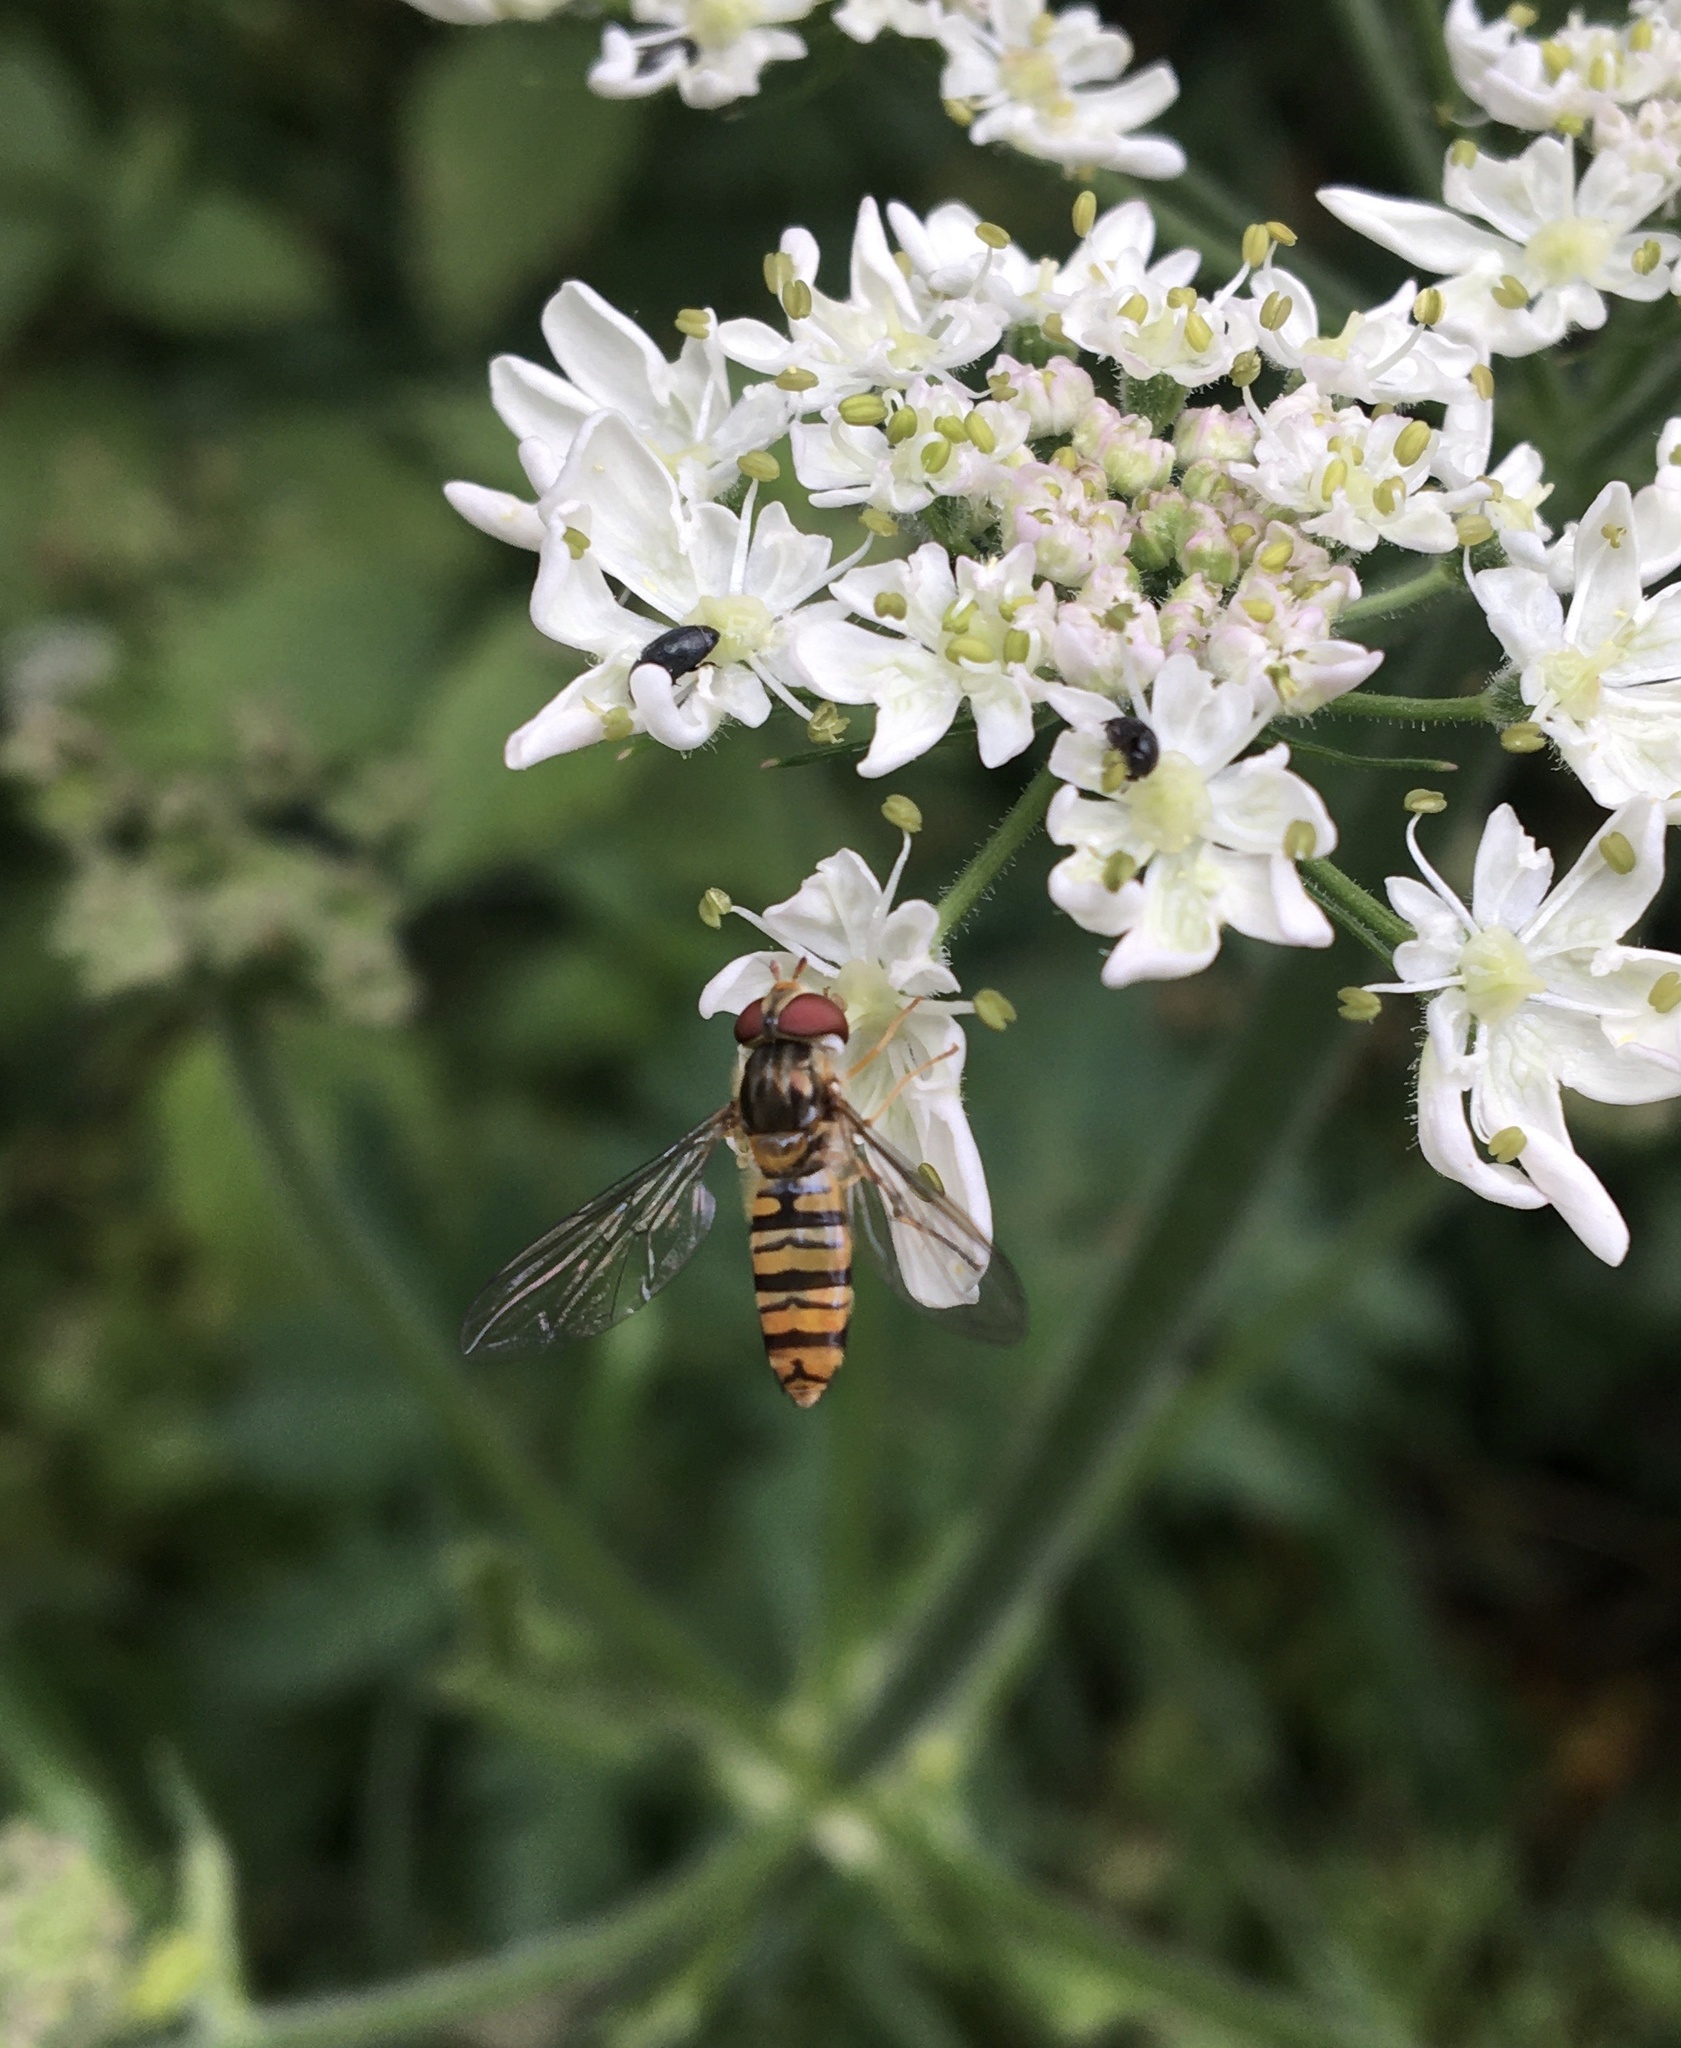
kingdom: Animalia
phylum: Arthropoda
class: Insecta
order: Diptera
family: Syrphidae
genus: Episyrphus
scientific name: Episyrphus balteatus
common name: Marmalade hoverfly
